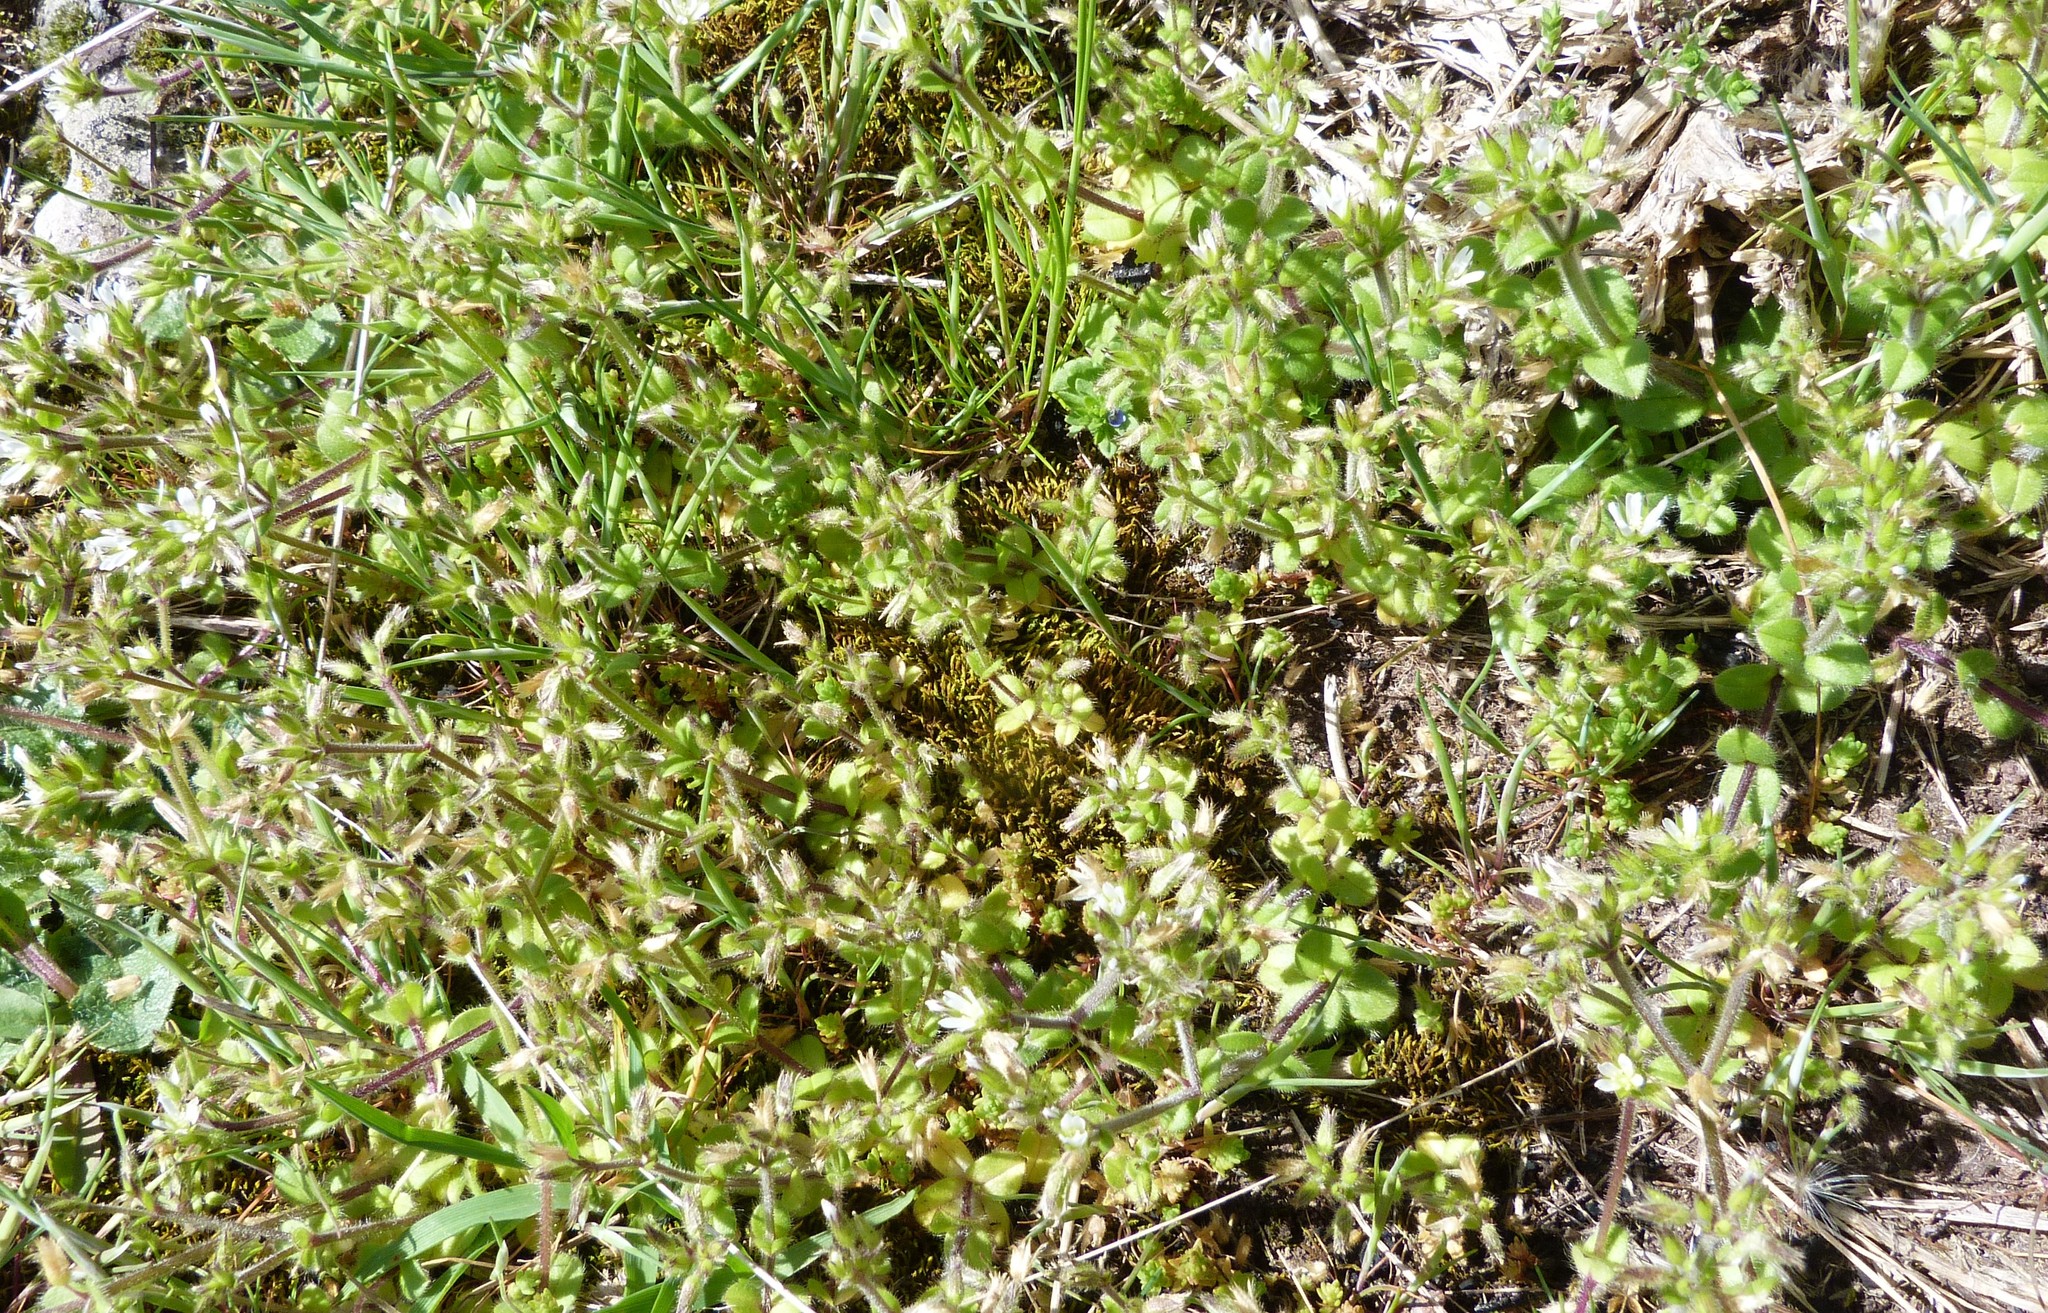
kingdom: Plantae
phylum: Tracheophyta
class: Magnoliopsida
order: Caryophyllales
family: Caryophyllaceae
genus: Cerastium
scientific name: Cerastium glomeratum
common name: Sticky chickweed
